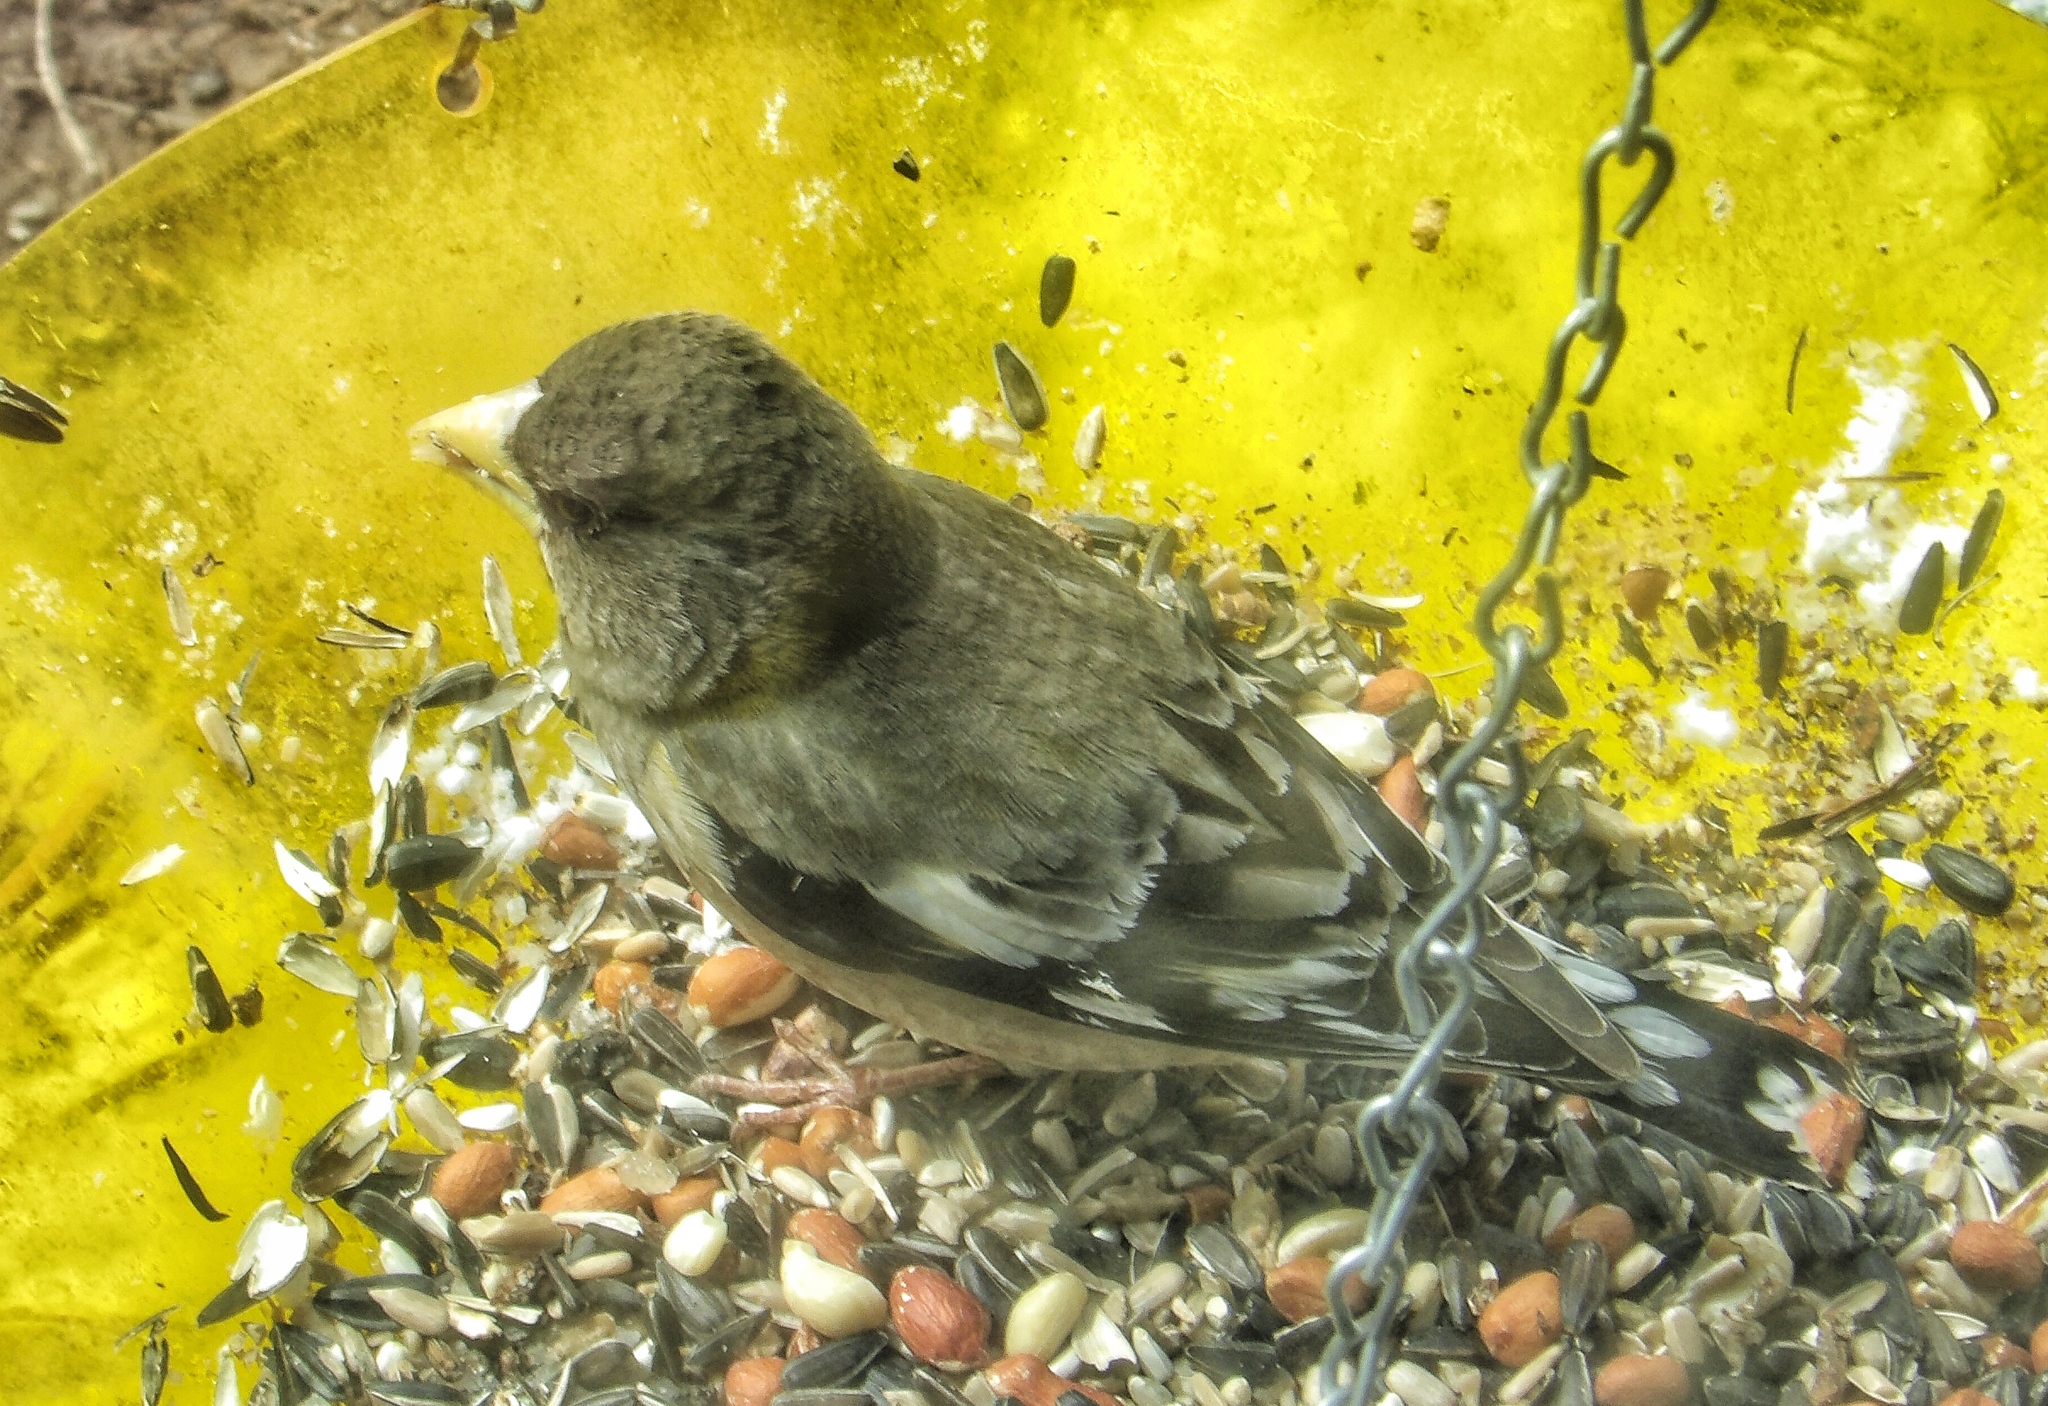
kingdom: Animalia
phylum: Chordata
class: Aves
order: Passeriformes
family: Fringillidae
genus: Hesperiphona
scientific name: Hesperiphona vespertina
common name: Evening grosbeak
